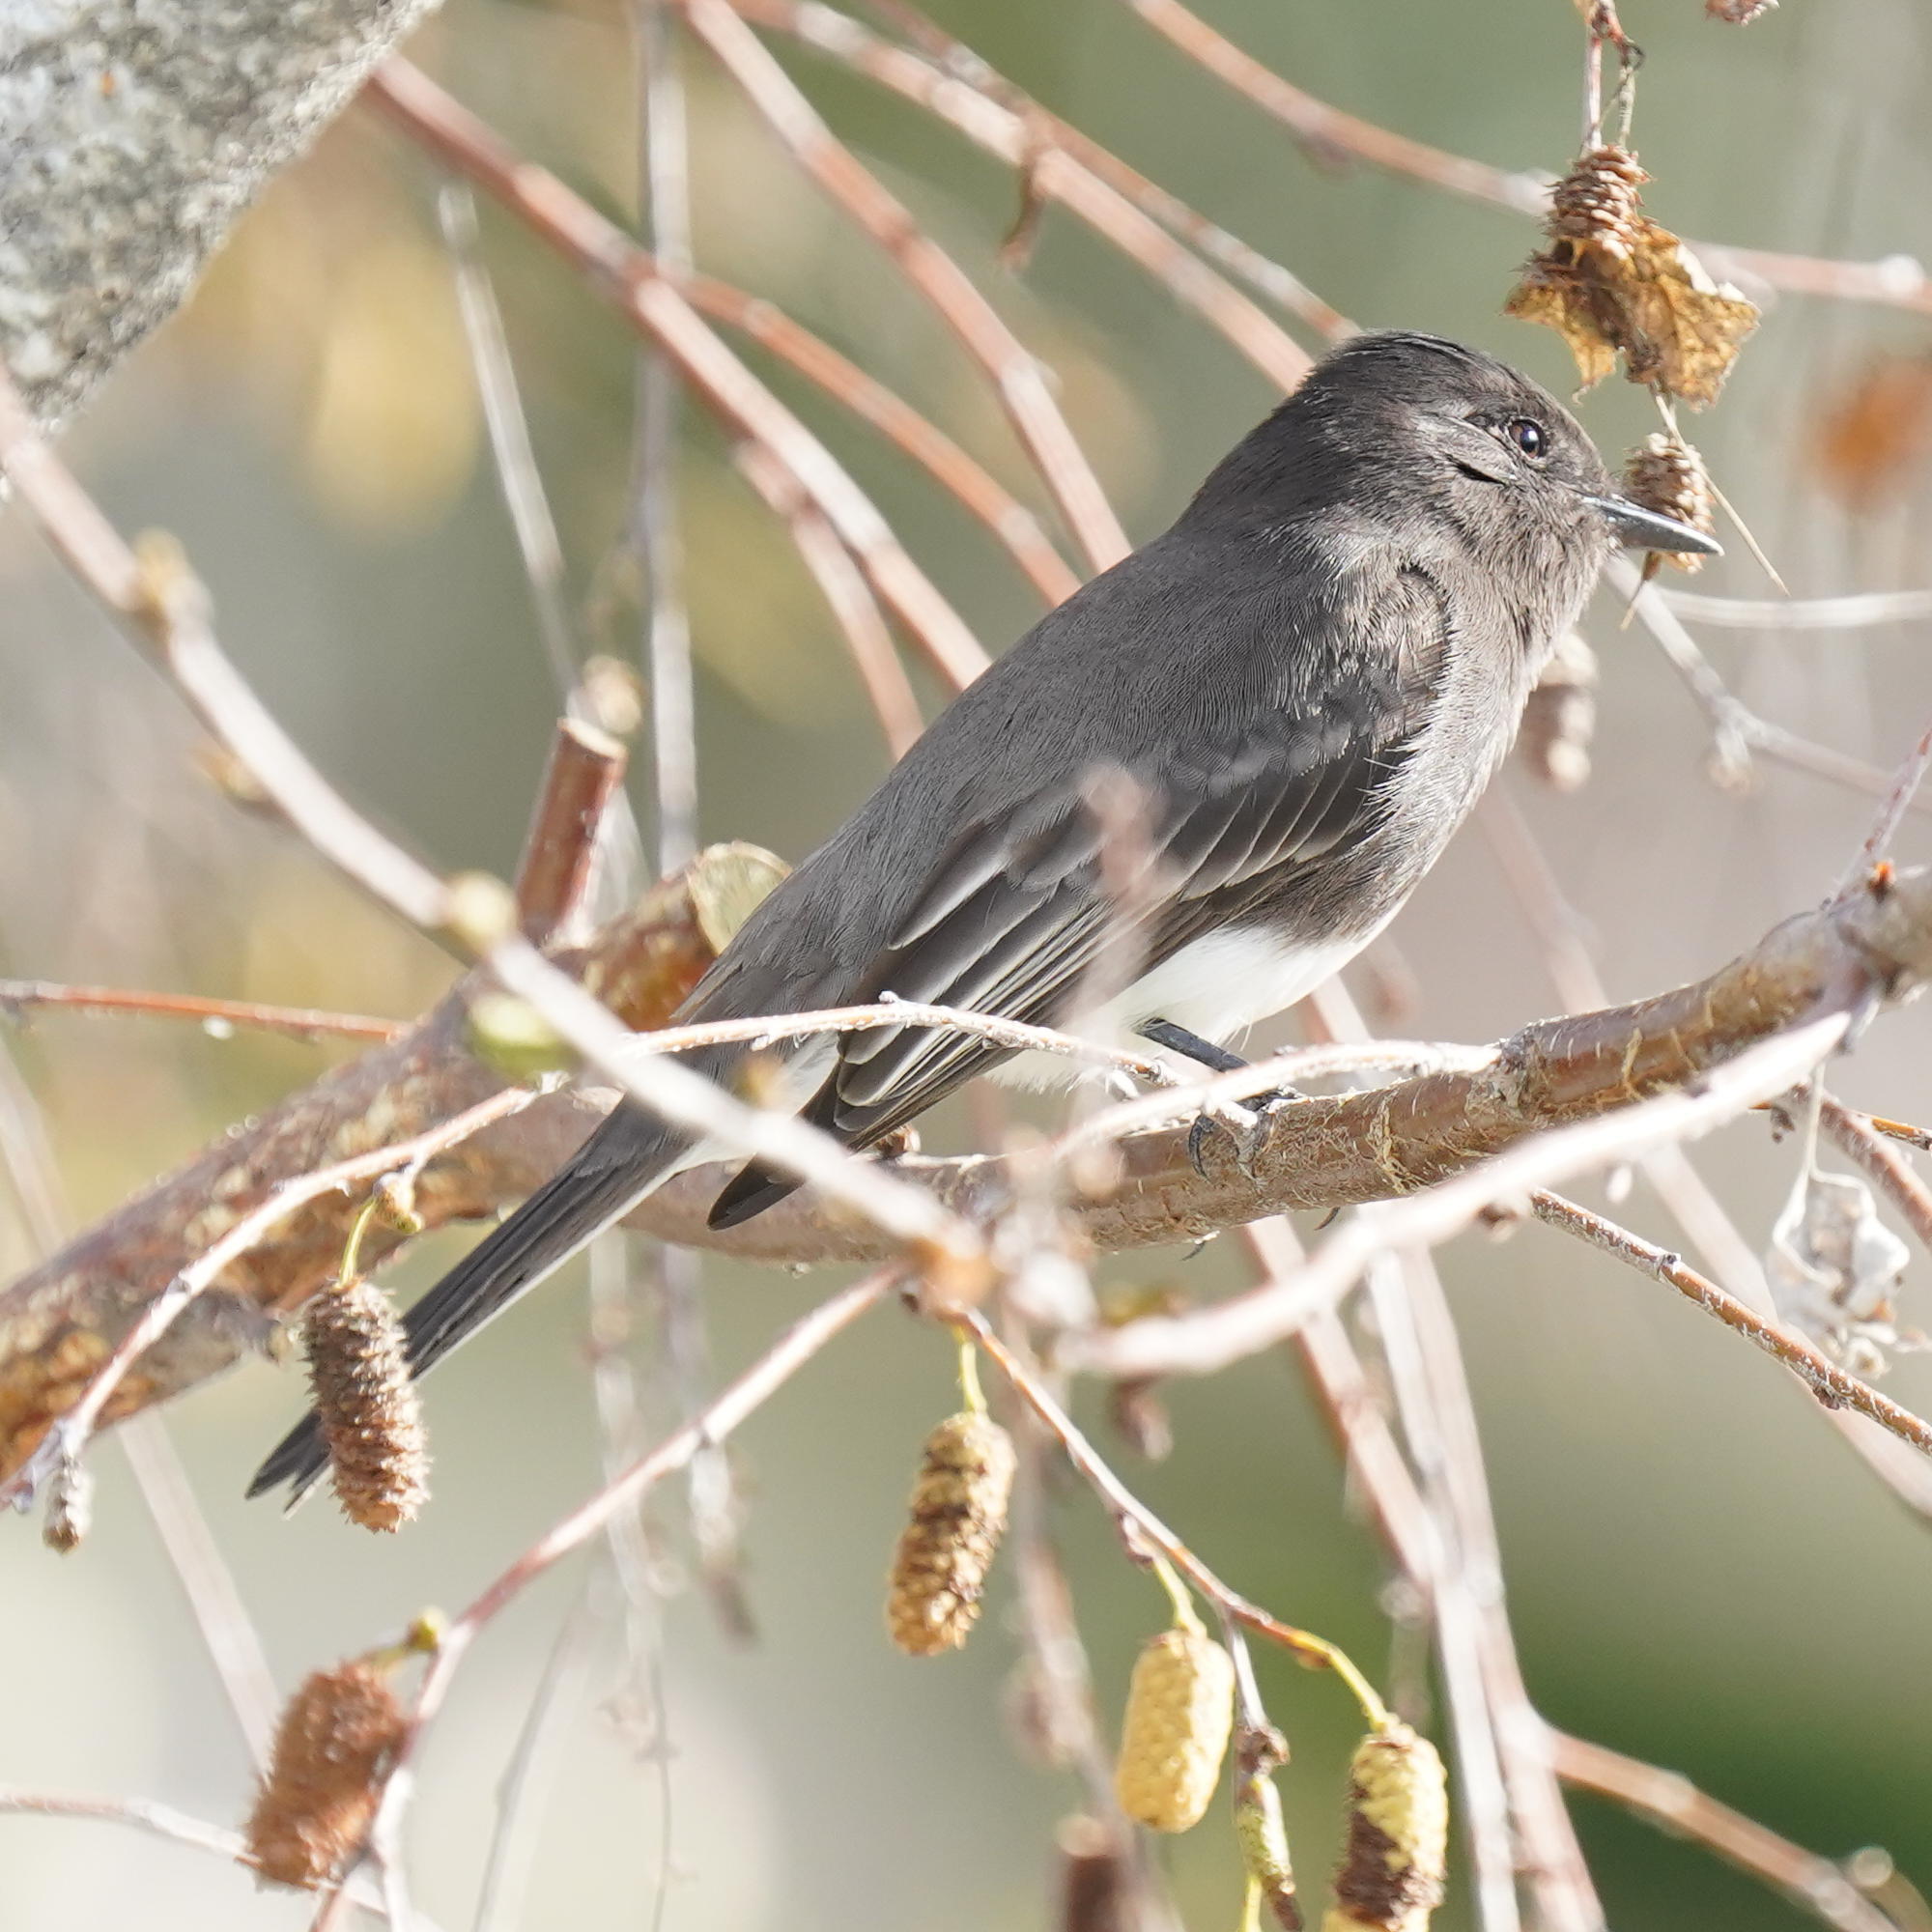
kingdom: Animalia
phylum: Chordata
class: Aves
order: Passeriformes
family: Tyrannidae
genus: Sayornis
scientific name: Sayornis nigricans
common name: Black phoebe
